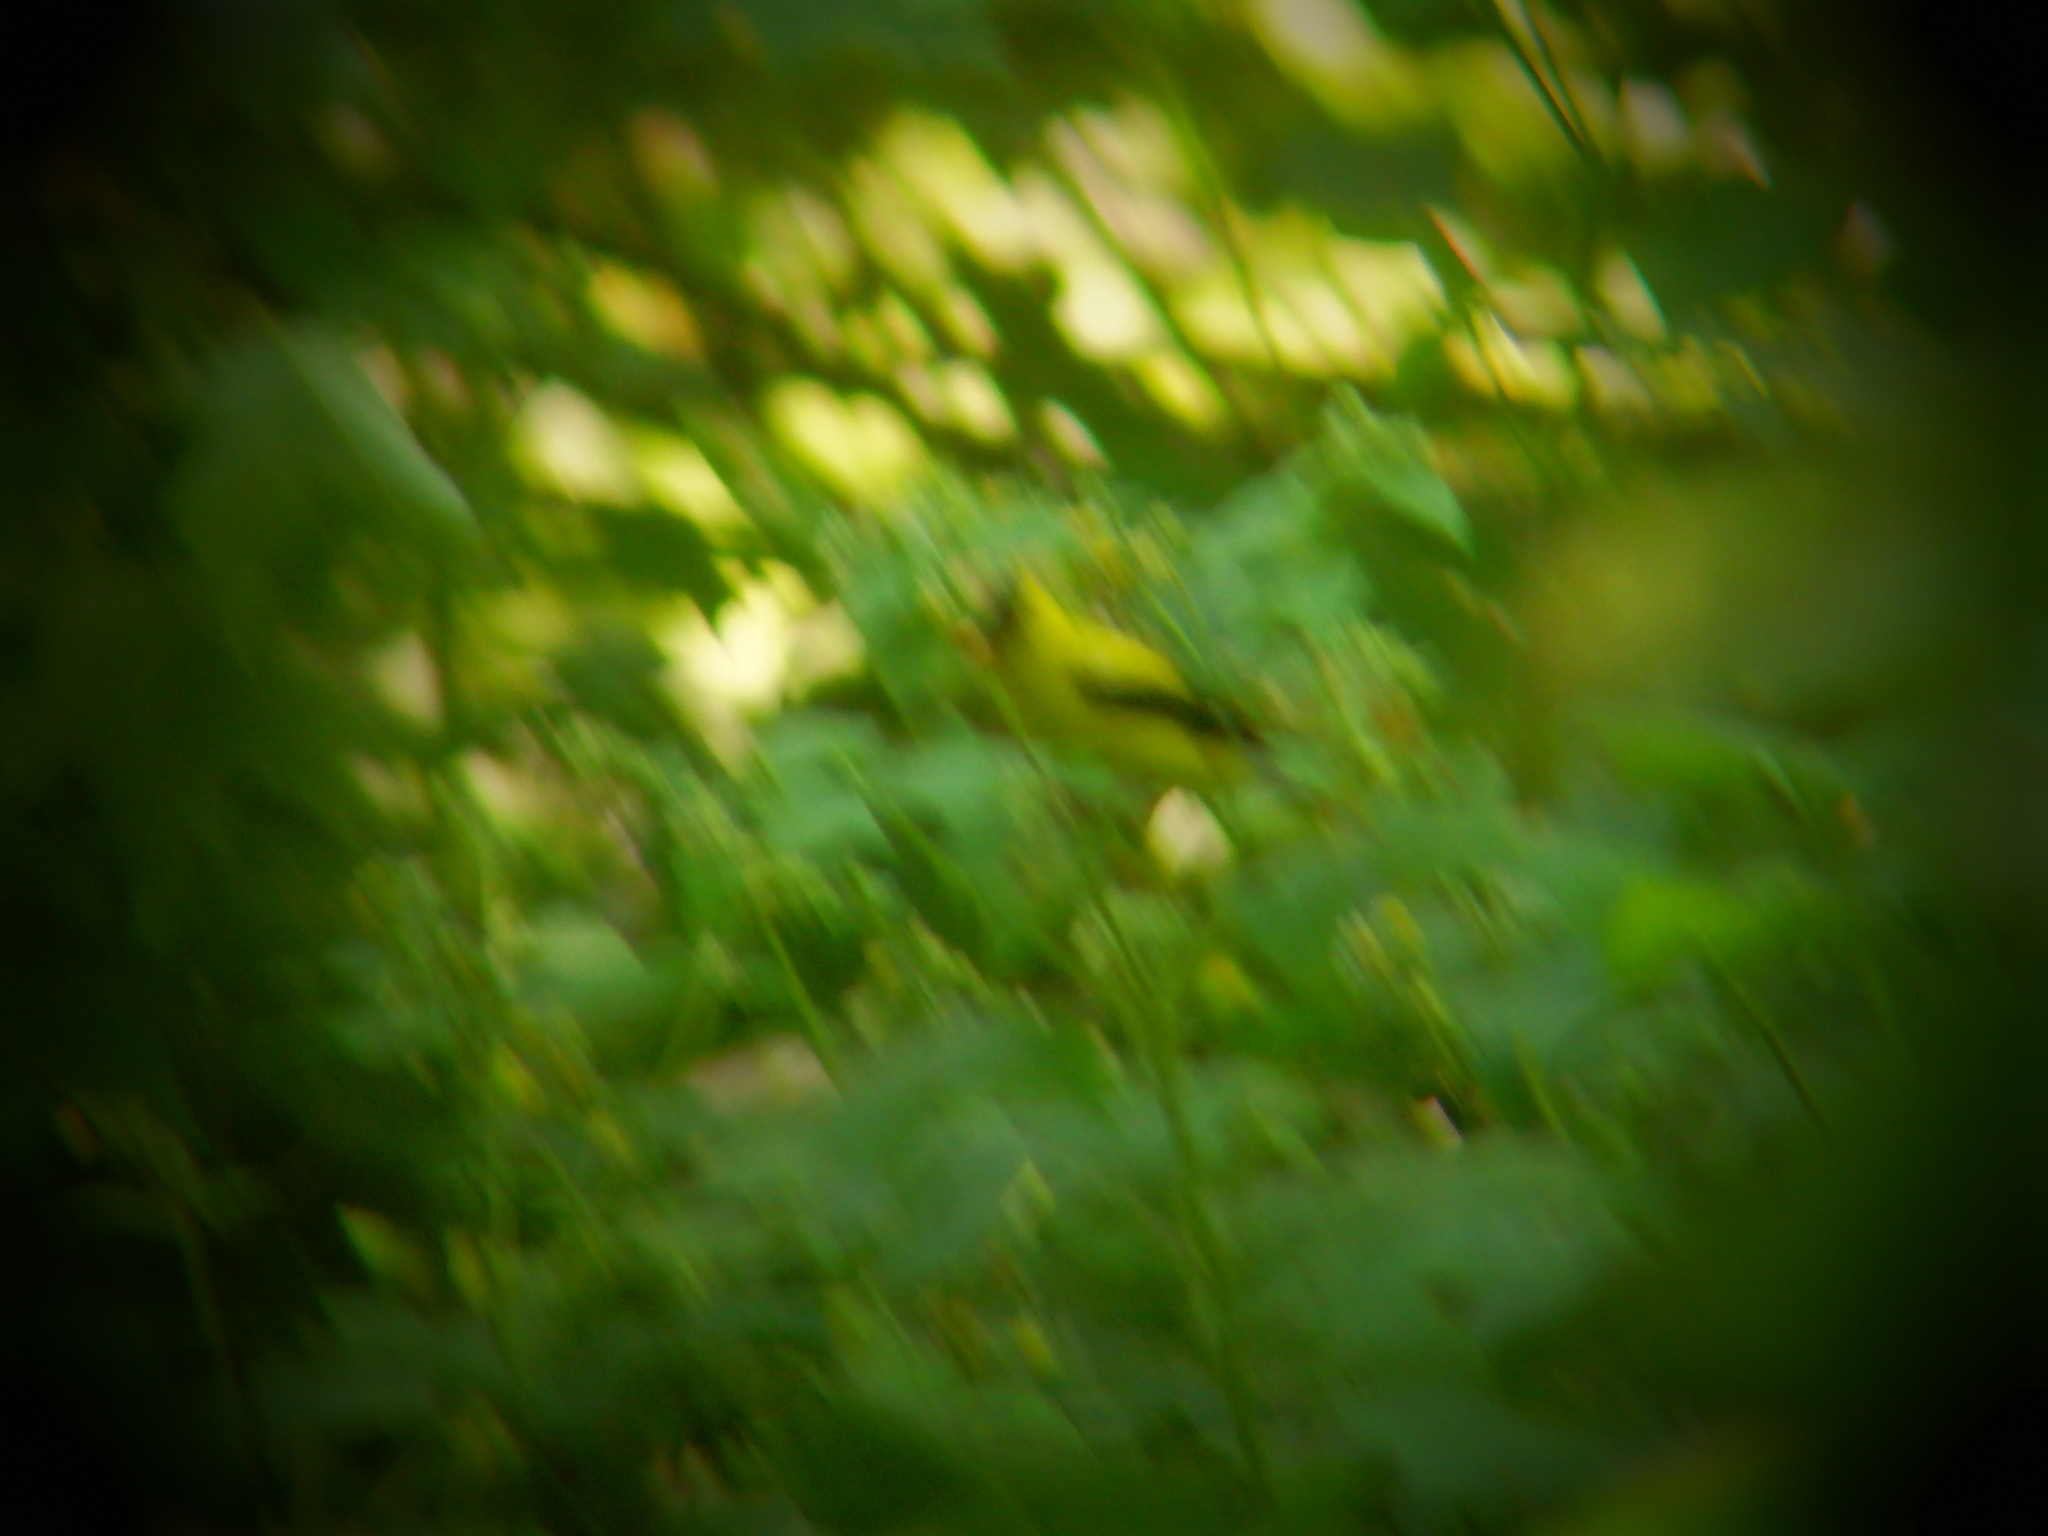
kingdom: Animalia
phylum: Chordata
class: Aves
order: Passeriformes
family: Fringillidae
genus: Spinus
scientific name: Spinus tristis
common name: American goldfinch
